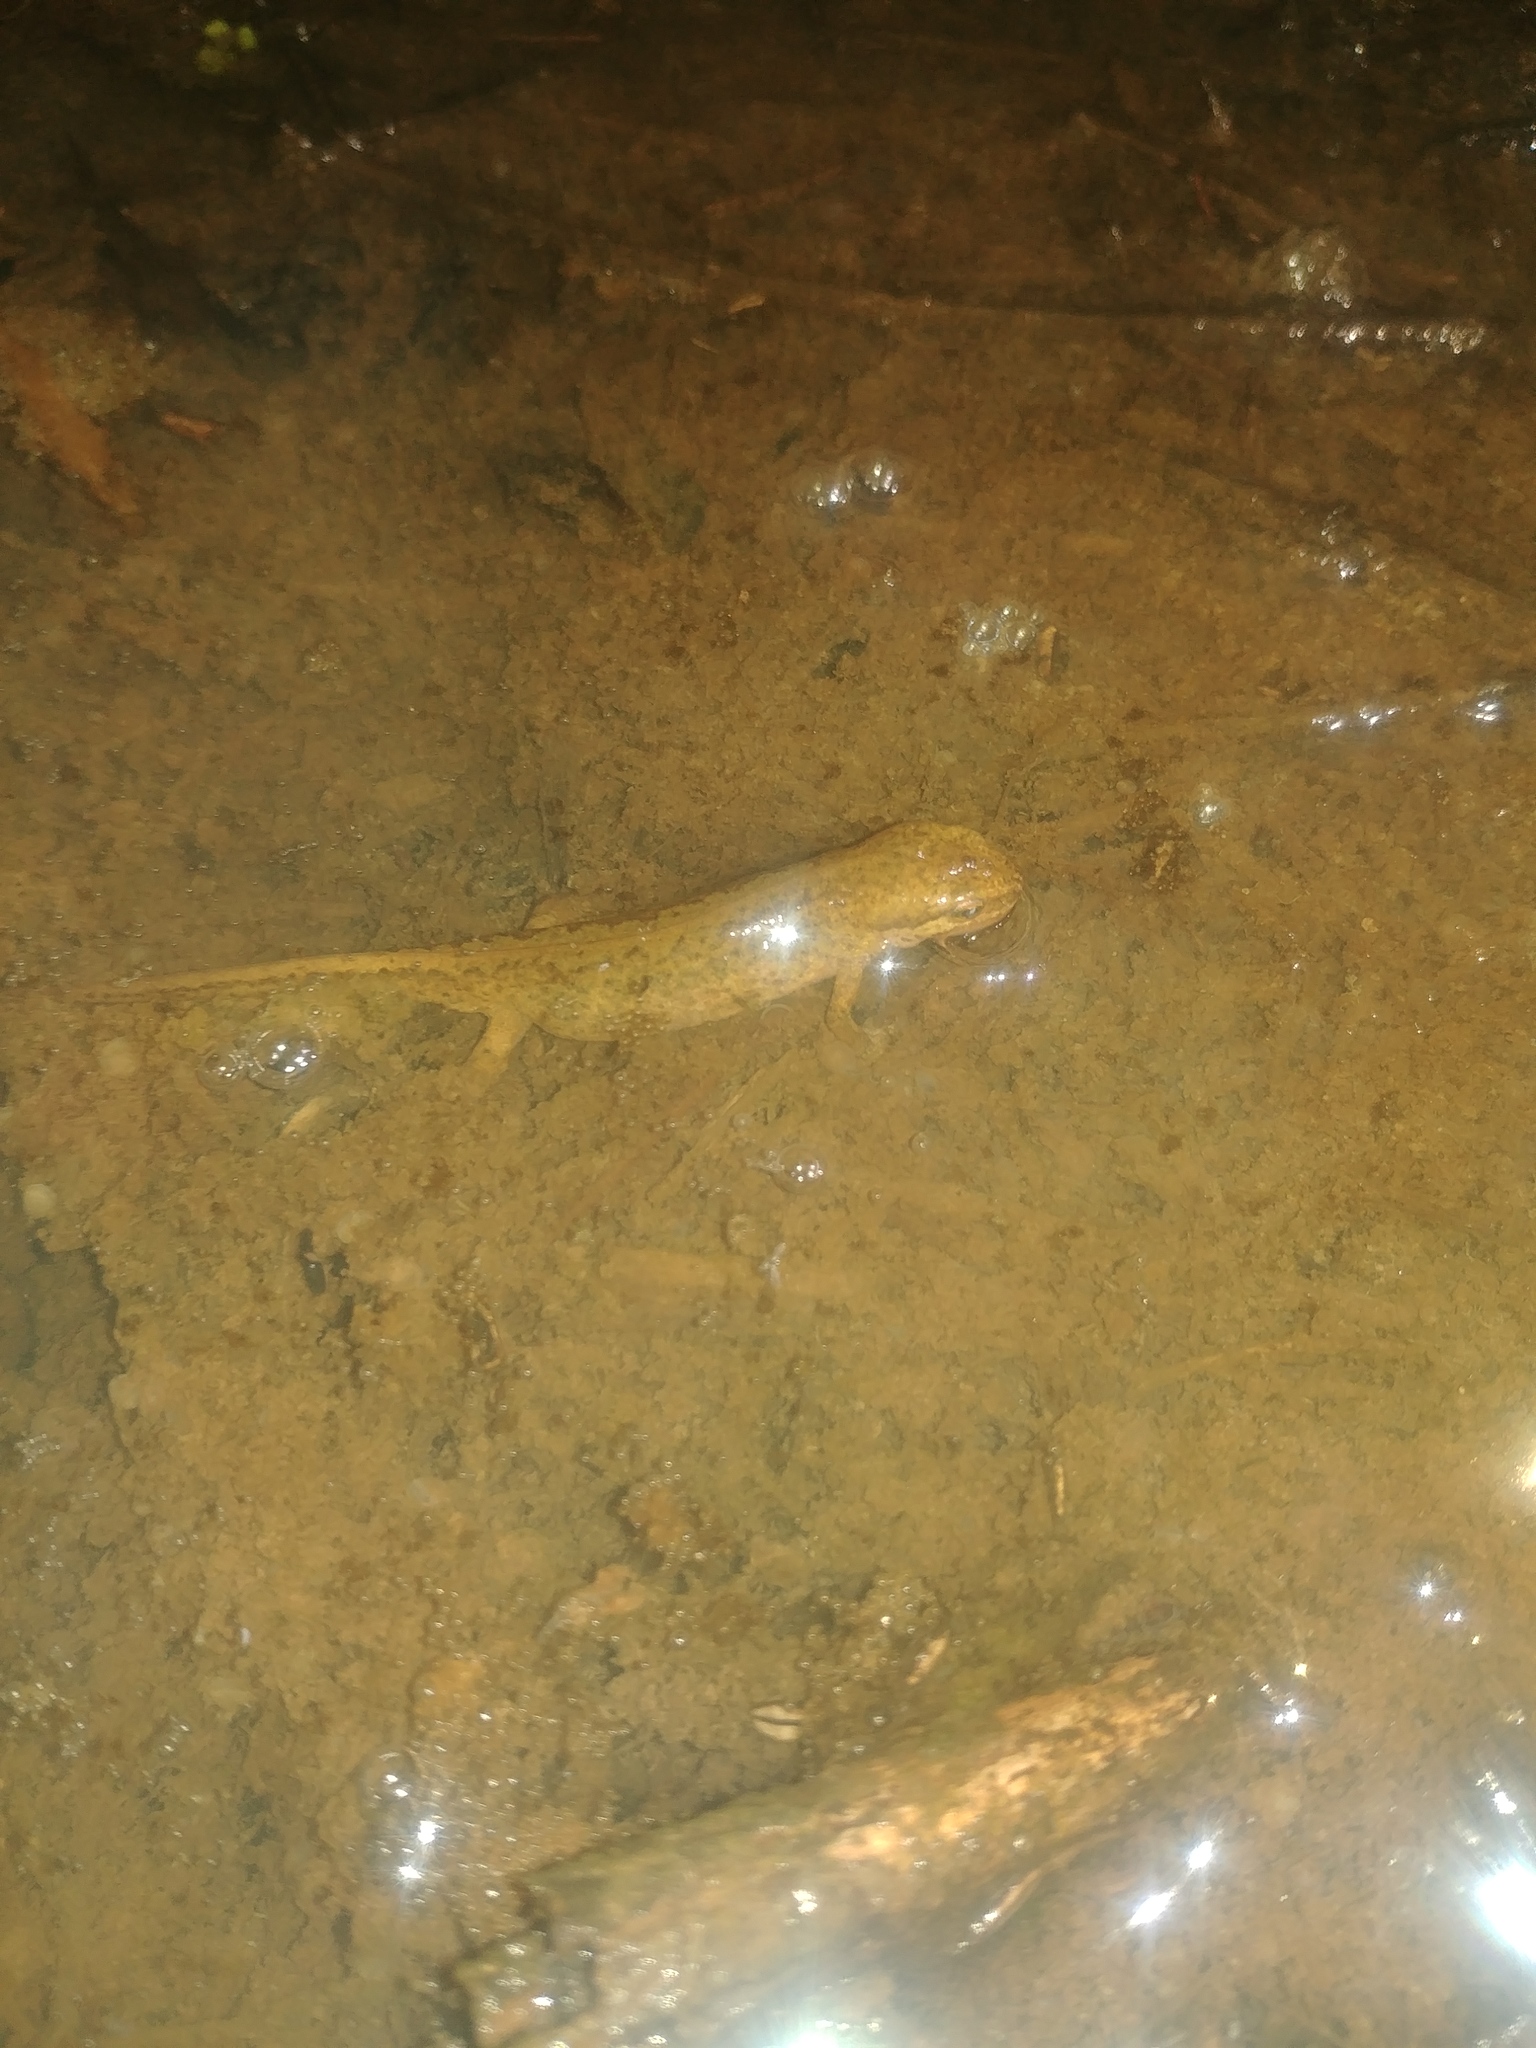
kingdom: Animalia
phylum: Chordata
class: Amphibia
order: Caudata
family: Salamandridae
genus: Lissotriton
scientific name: Lissotriton helveticus
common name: Palmate newt
